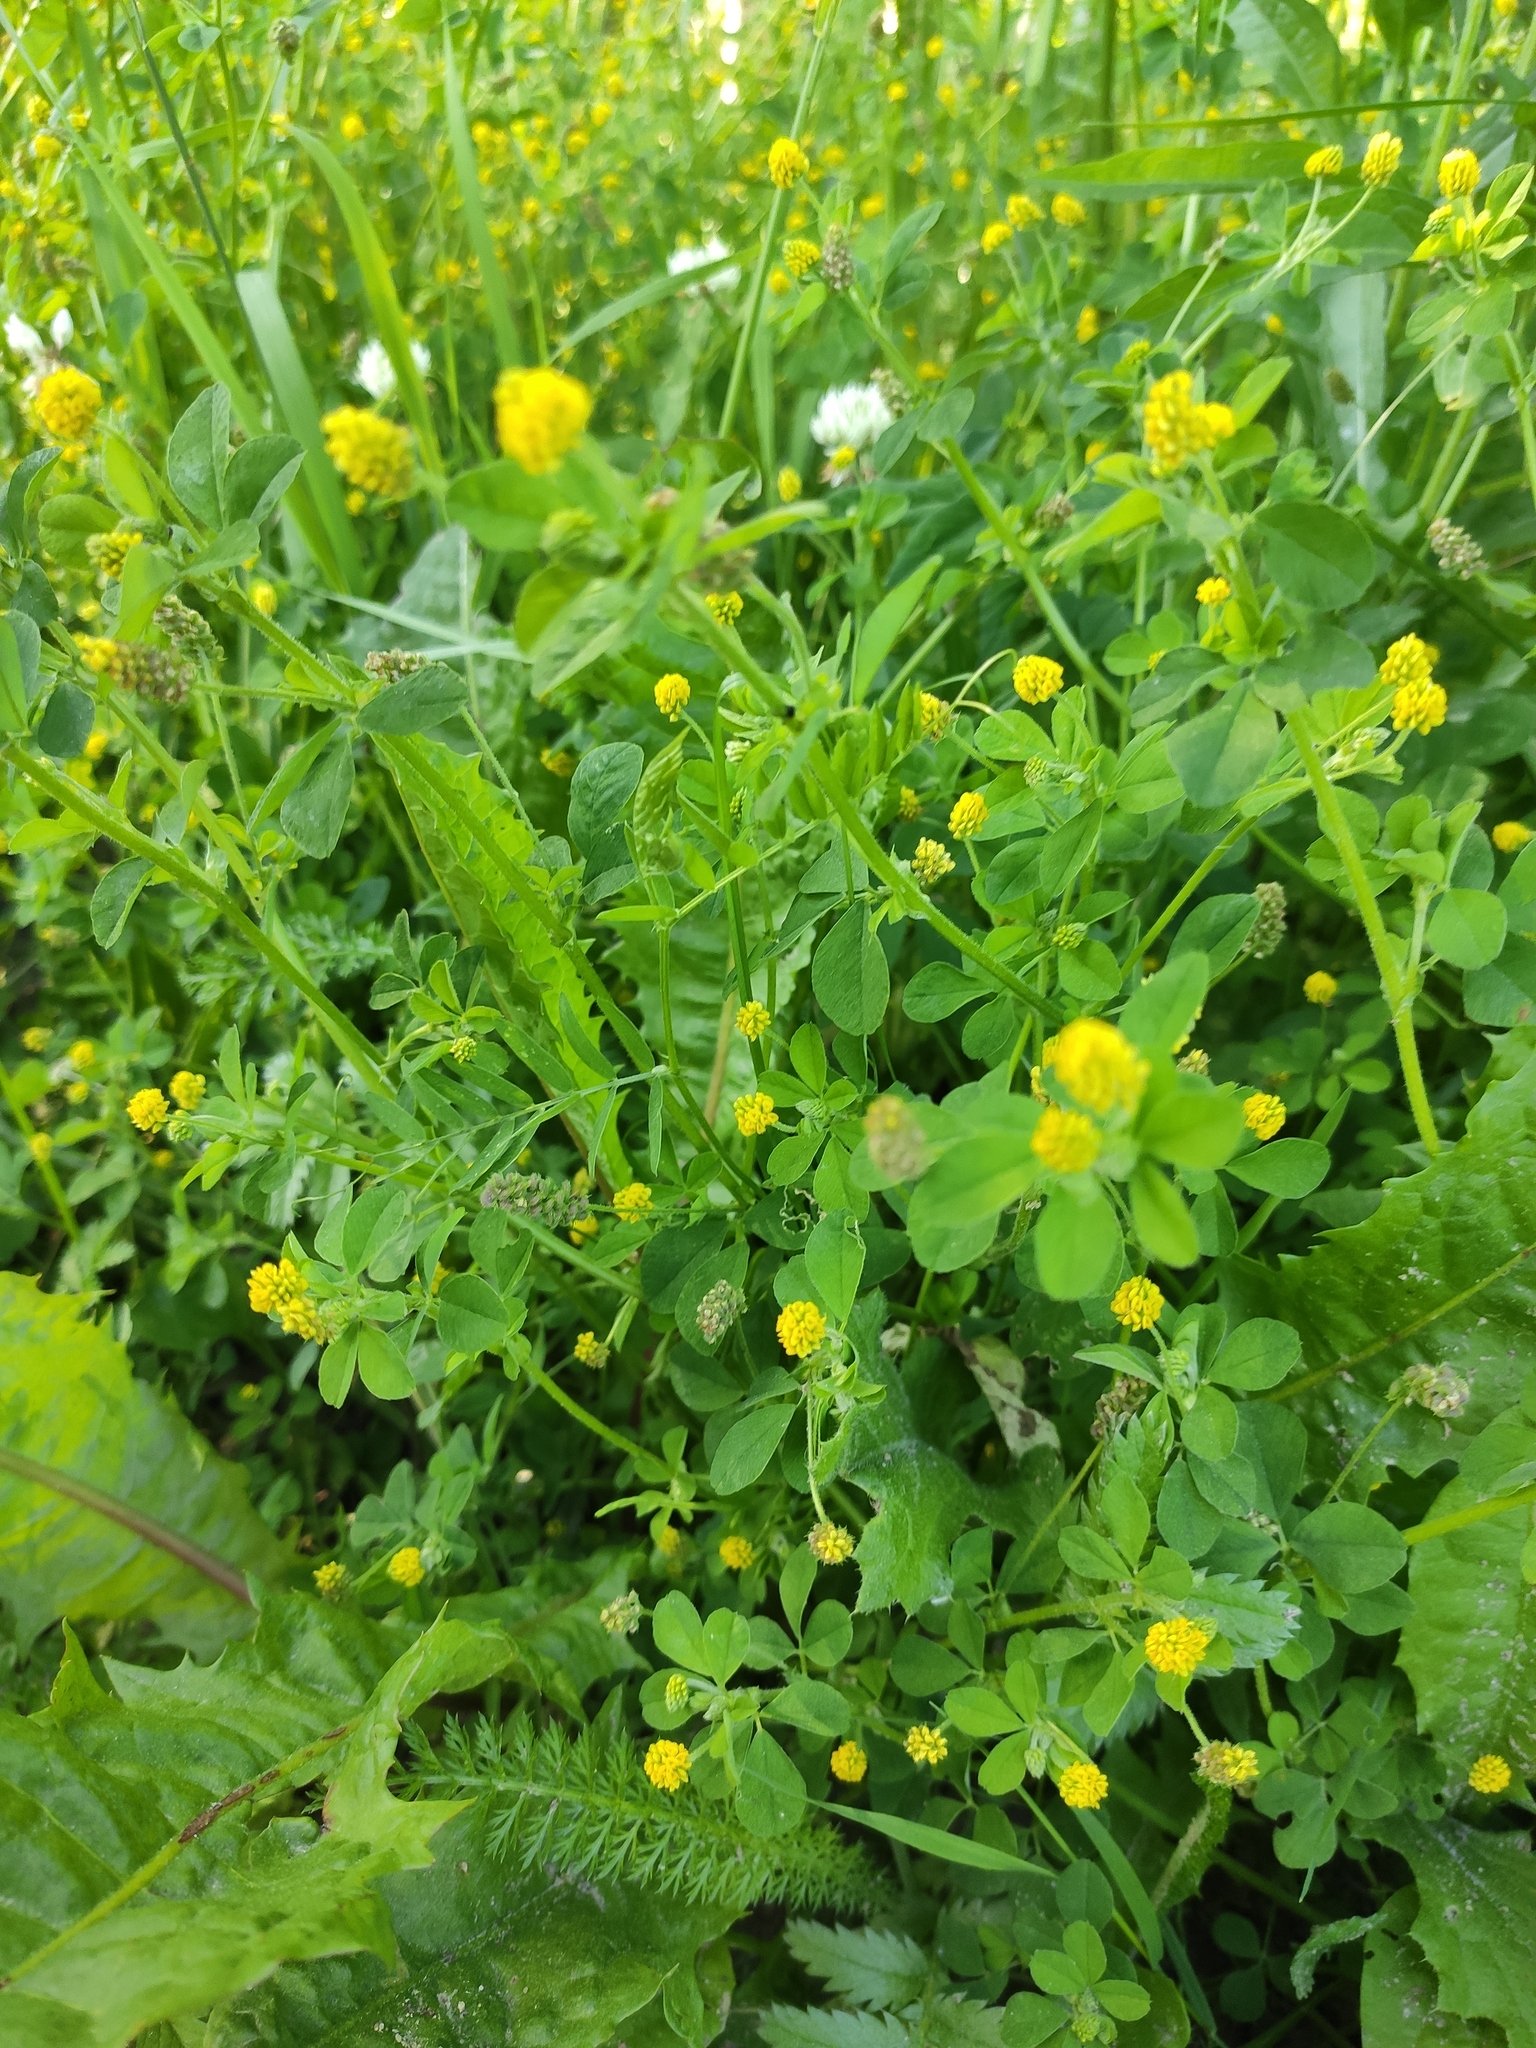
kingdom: Plantae
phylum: Tracheophyta
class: Magnoliopsida
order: Fabales
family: Fabaceae
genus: Medicago
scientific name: Medicago lupulina
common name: Black medick
